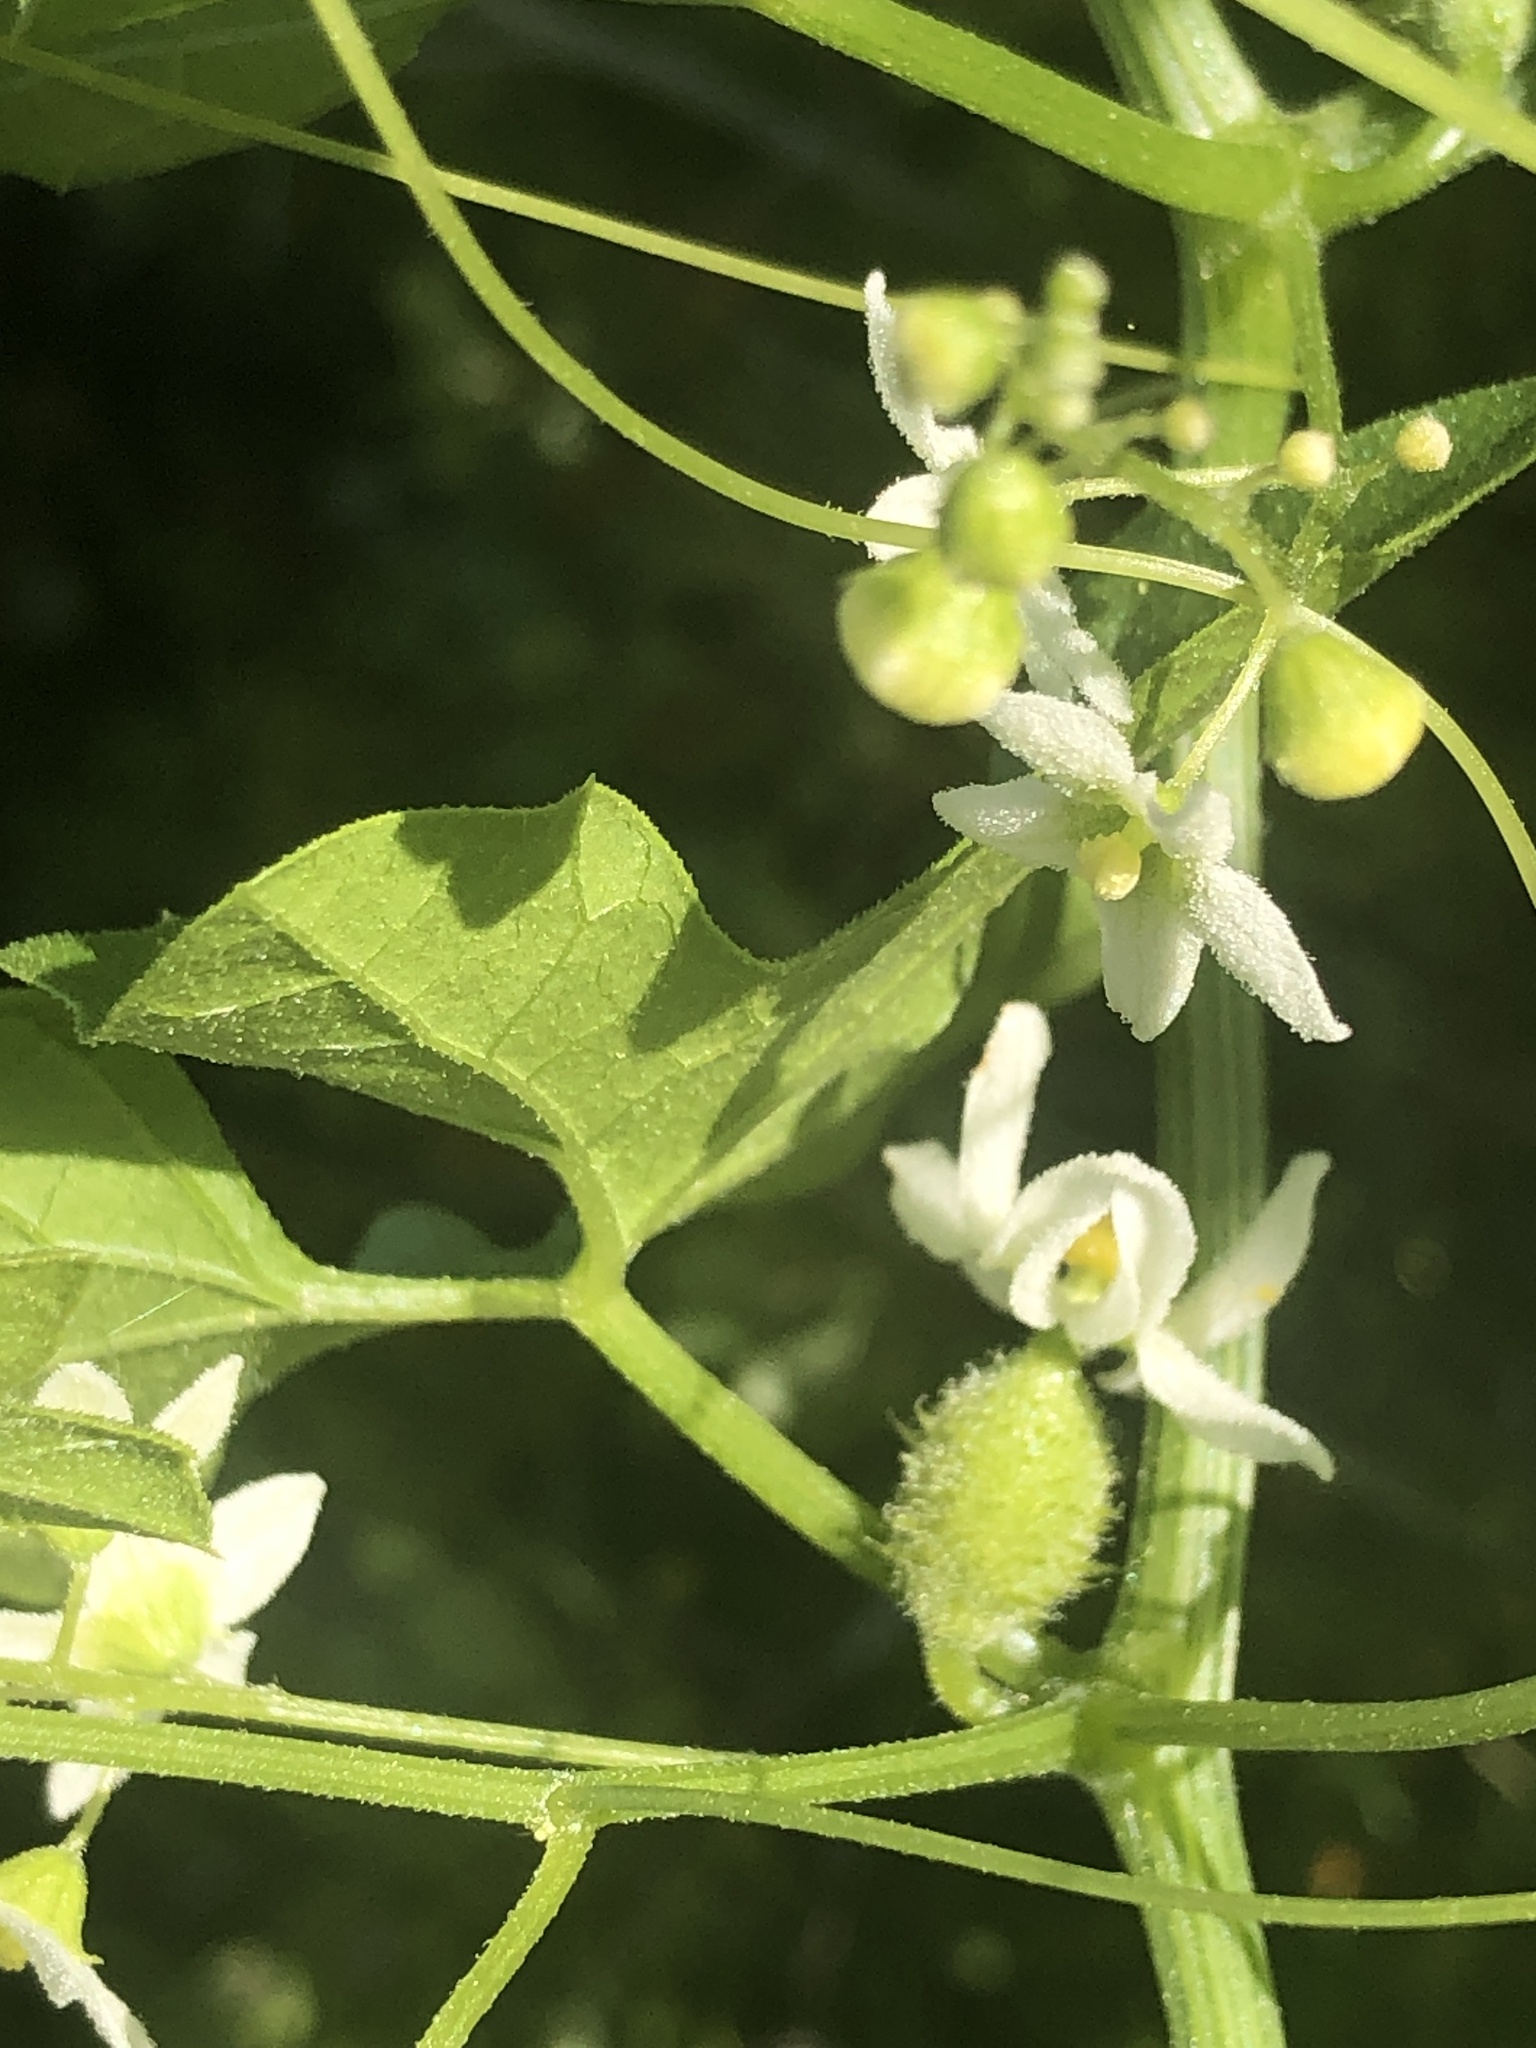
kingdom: Plantae
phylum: Tracheophyta
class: Magnoliopsida
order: Cucurbitales
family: Cucurbitaceae
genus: Marah
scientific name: Marah macrocarpa
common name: Cucamonga manroot
